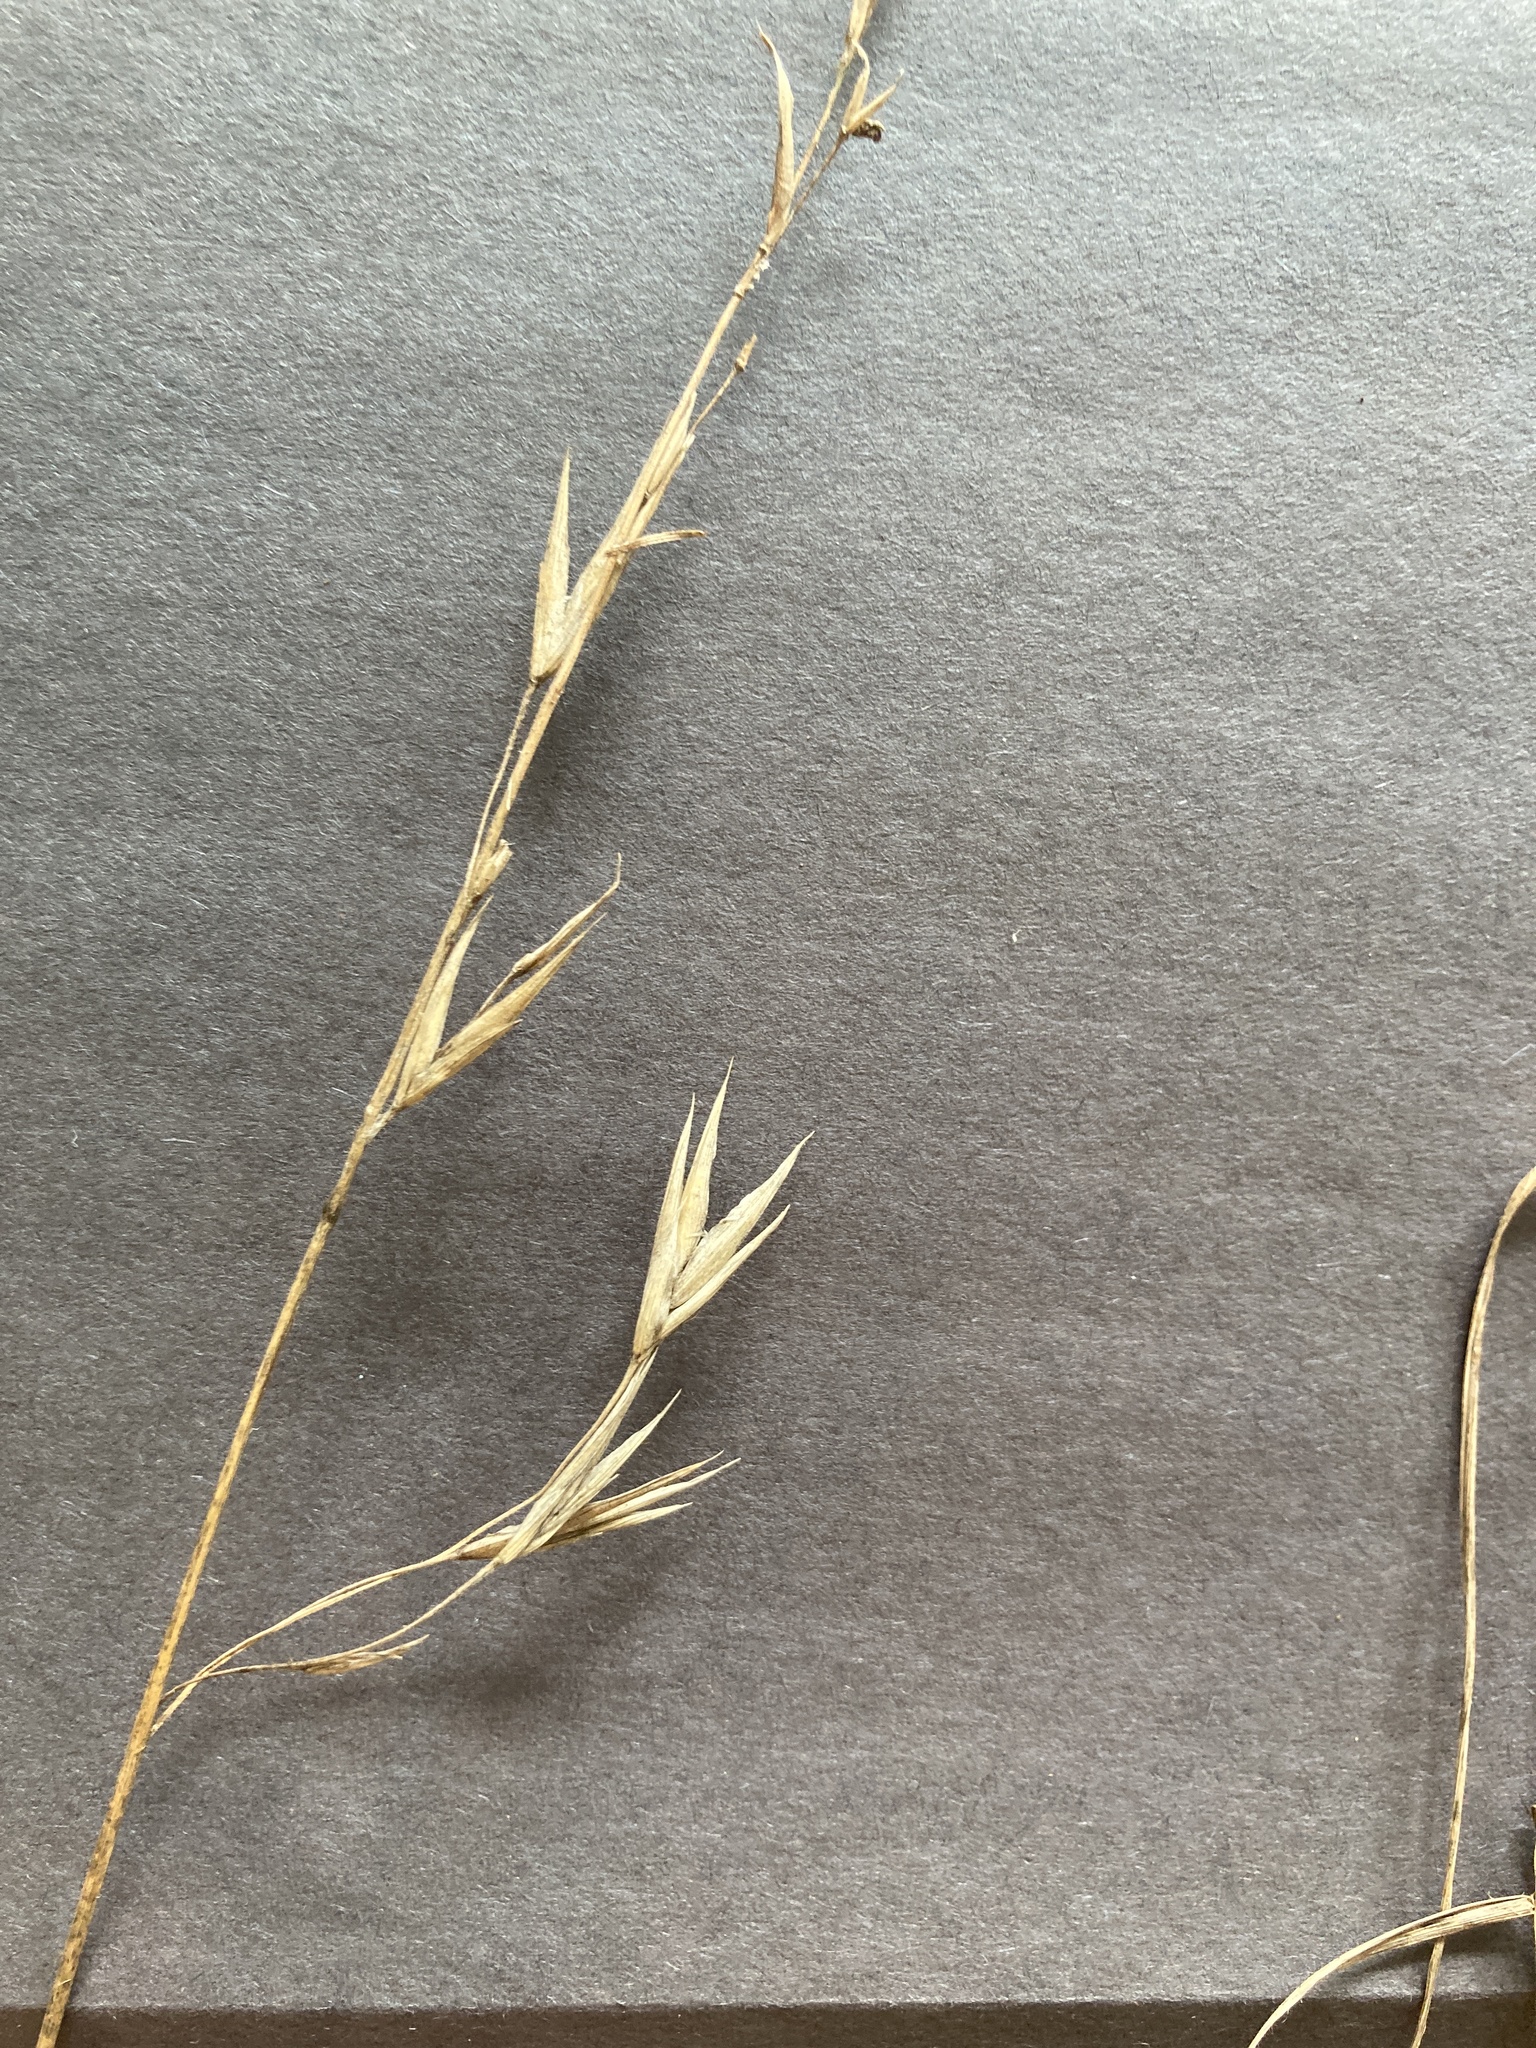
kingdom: Plantae
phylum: Tracheophyta
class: Liliopsida
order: Poales
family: Poaceae
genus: Bromus
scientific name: Bromus catharticus
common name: Rescuegrass
